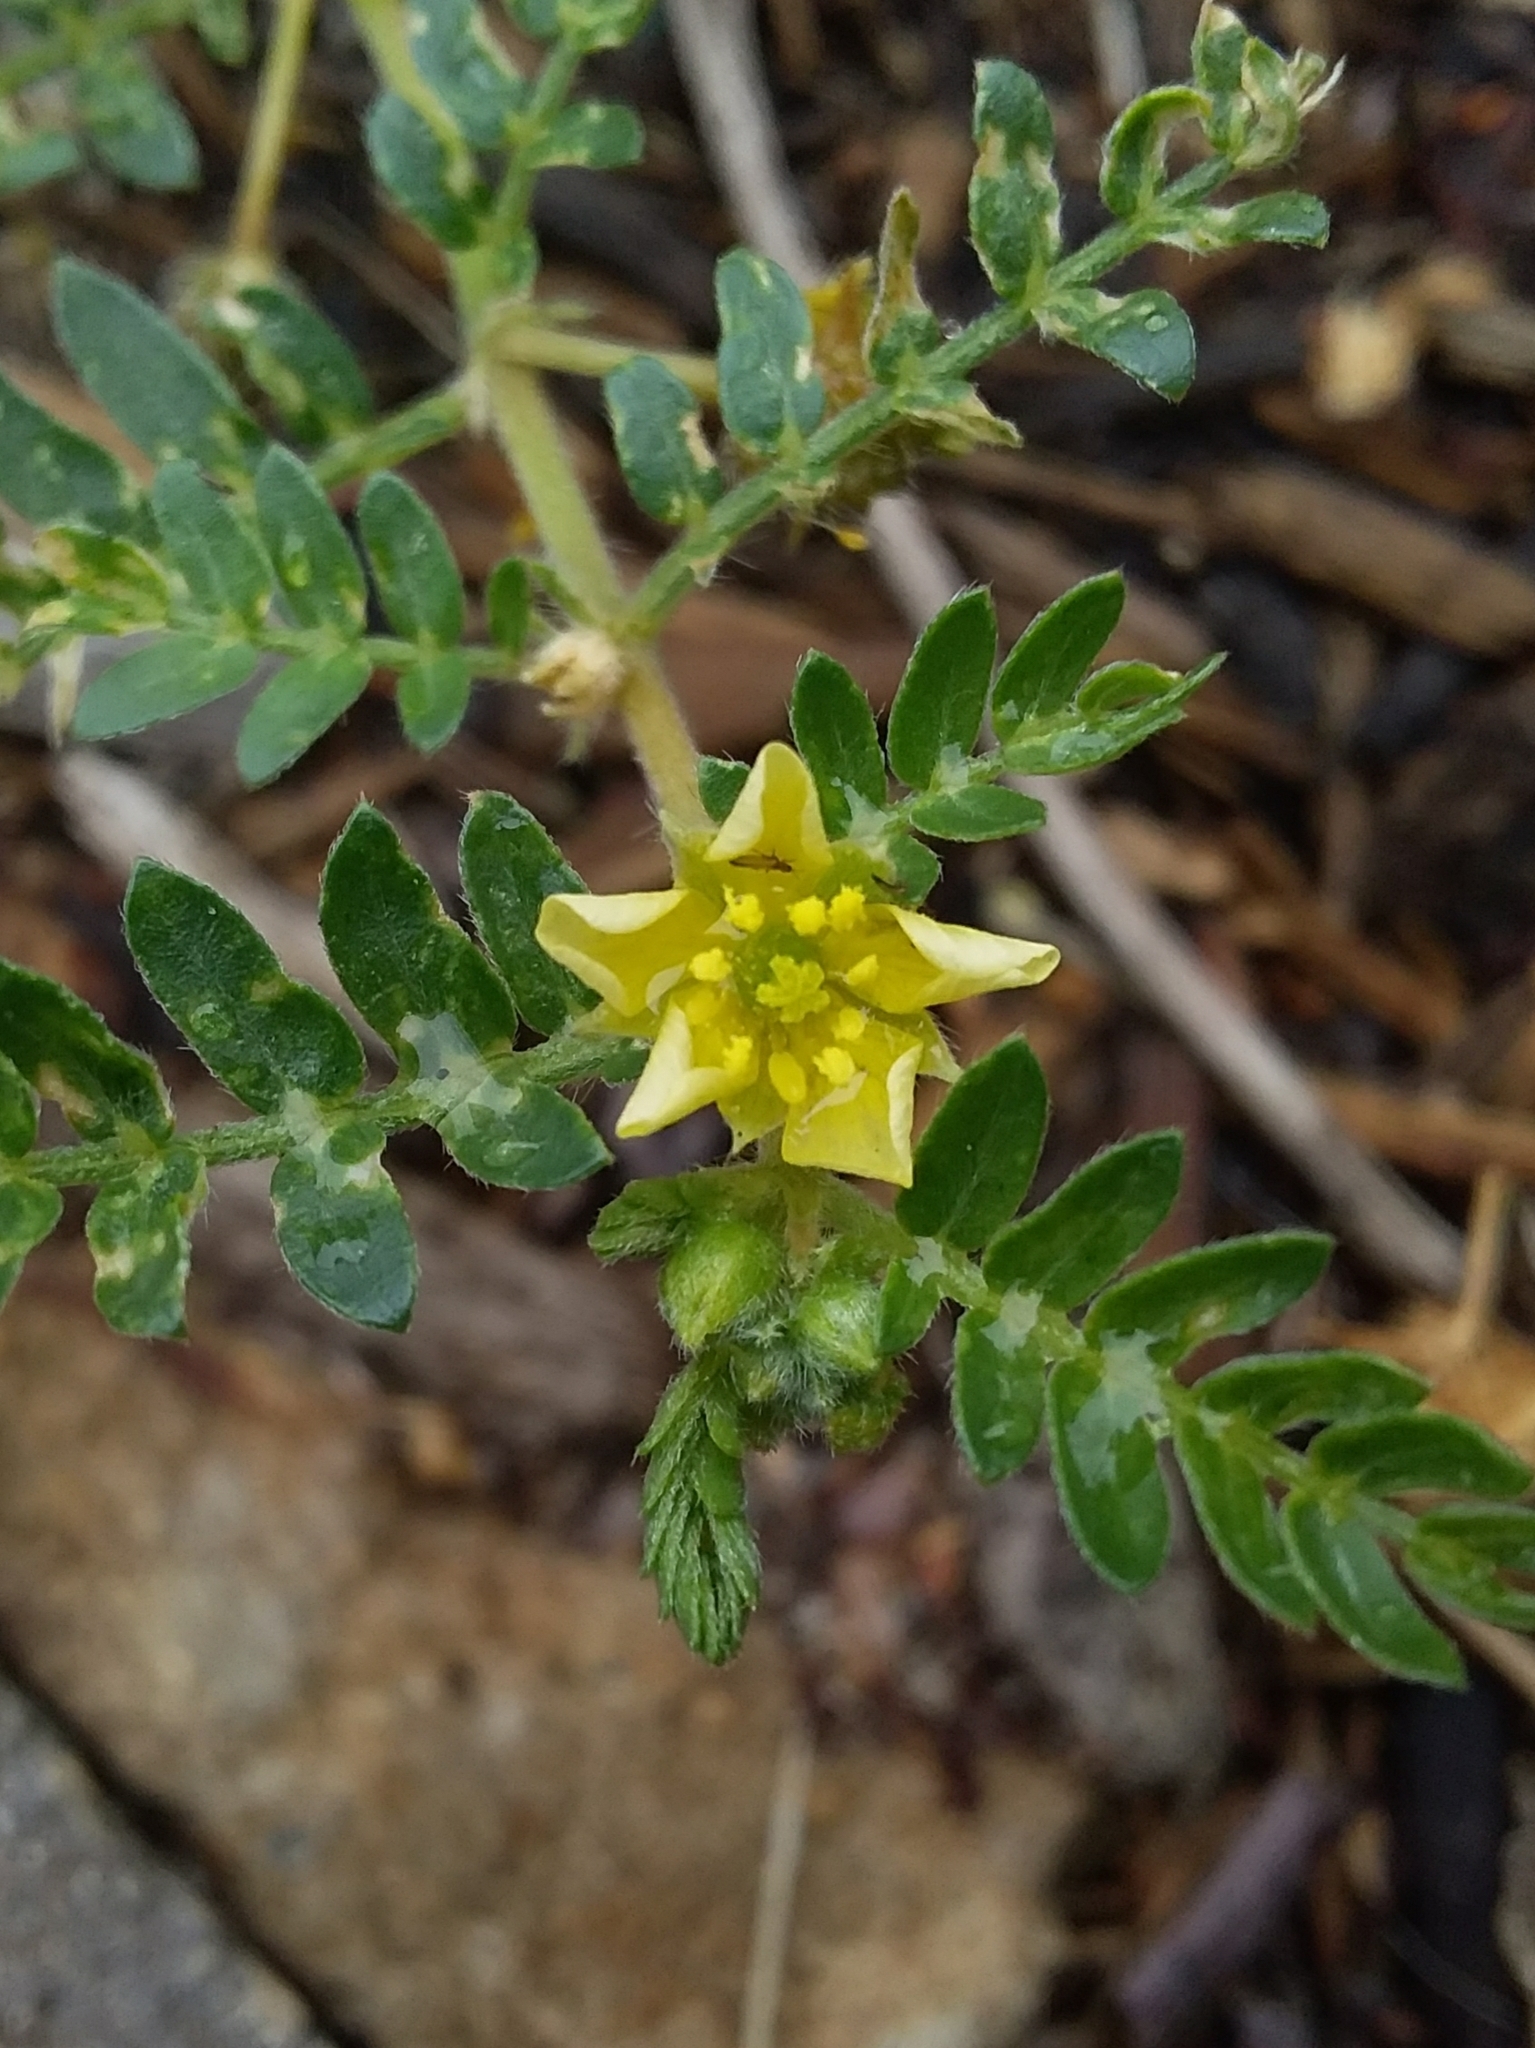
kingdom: Plantae
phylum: Tracheophyta
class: Magnoliopsida
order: Zygophyllales
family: Zygophyllaceae
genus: Tribulus
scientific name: Tribulus terrestris
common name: Puncturevine
